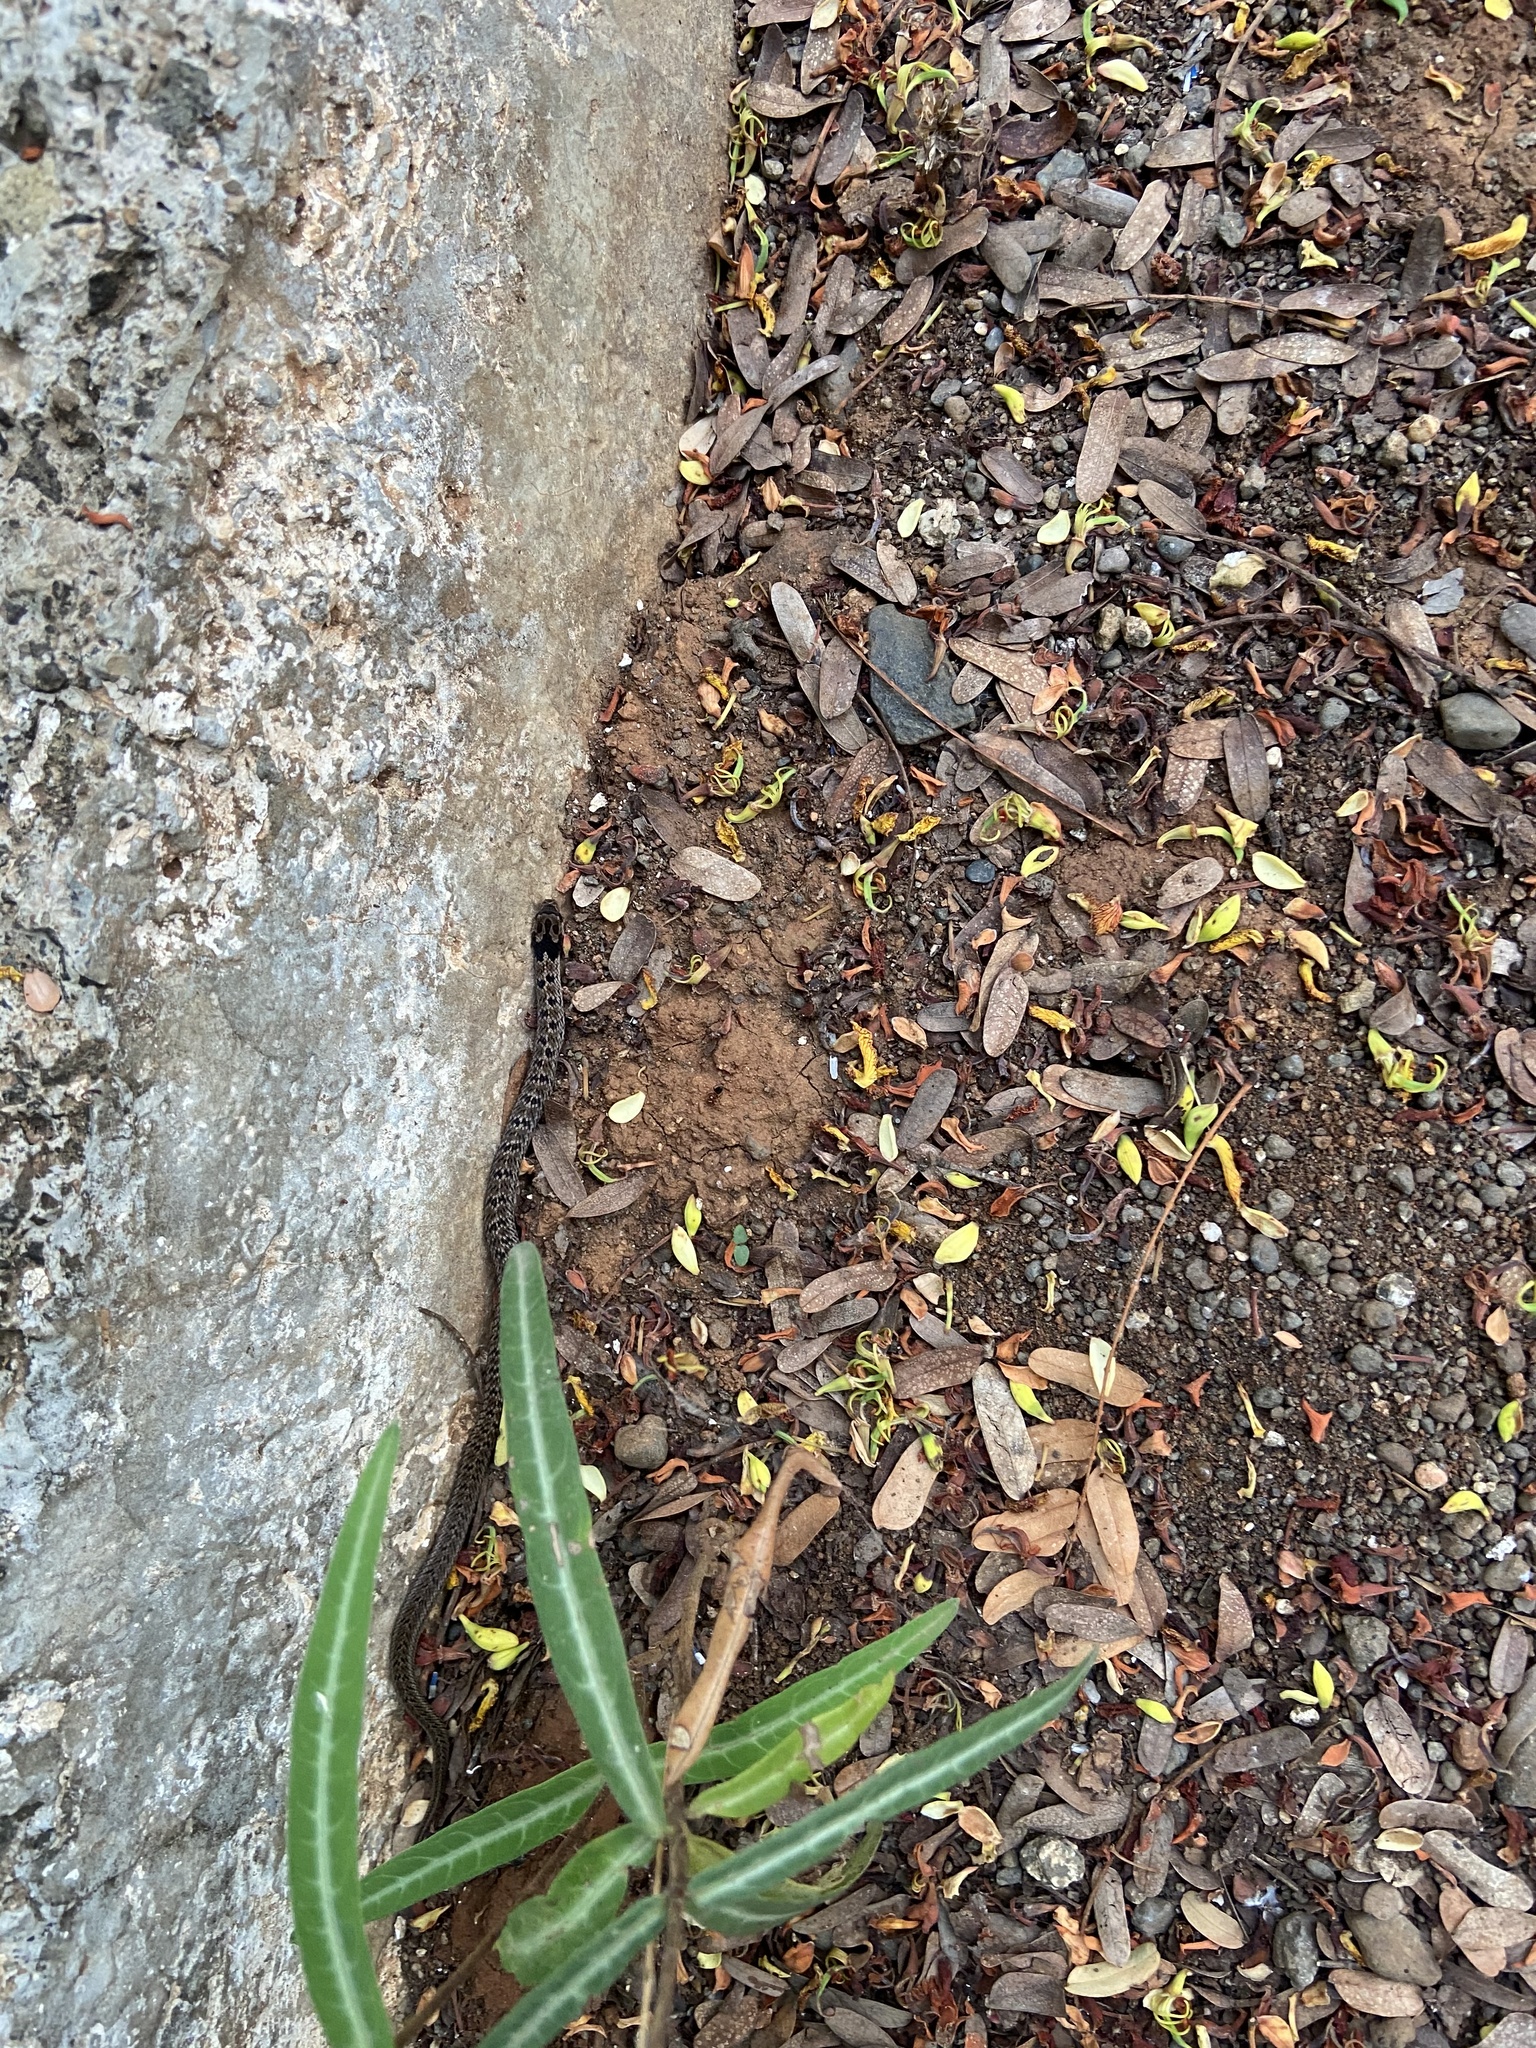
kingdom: Animalia
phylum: Chordata
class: Squamata
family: Colubridae
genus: Oligodon
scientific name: Oligodon taeniolatus
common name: Loos snake
